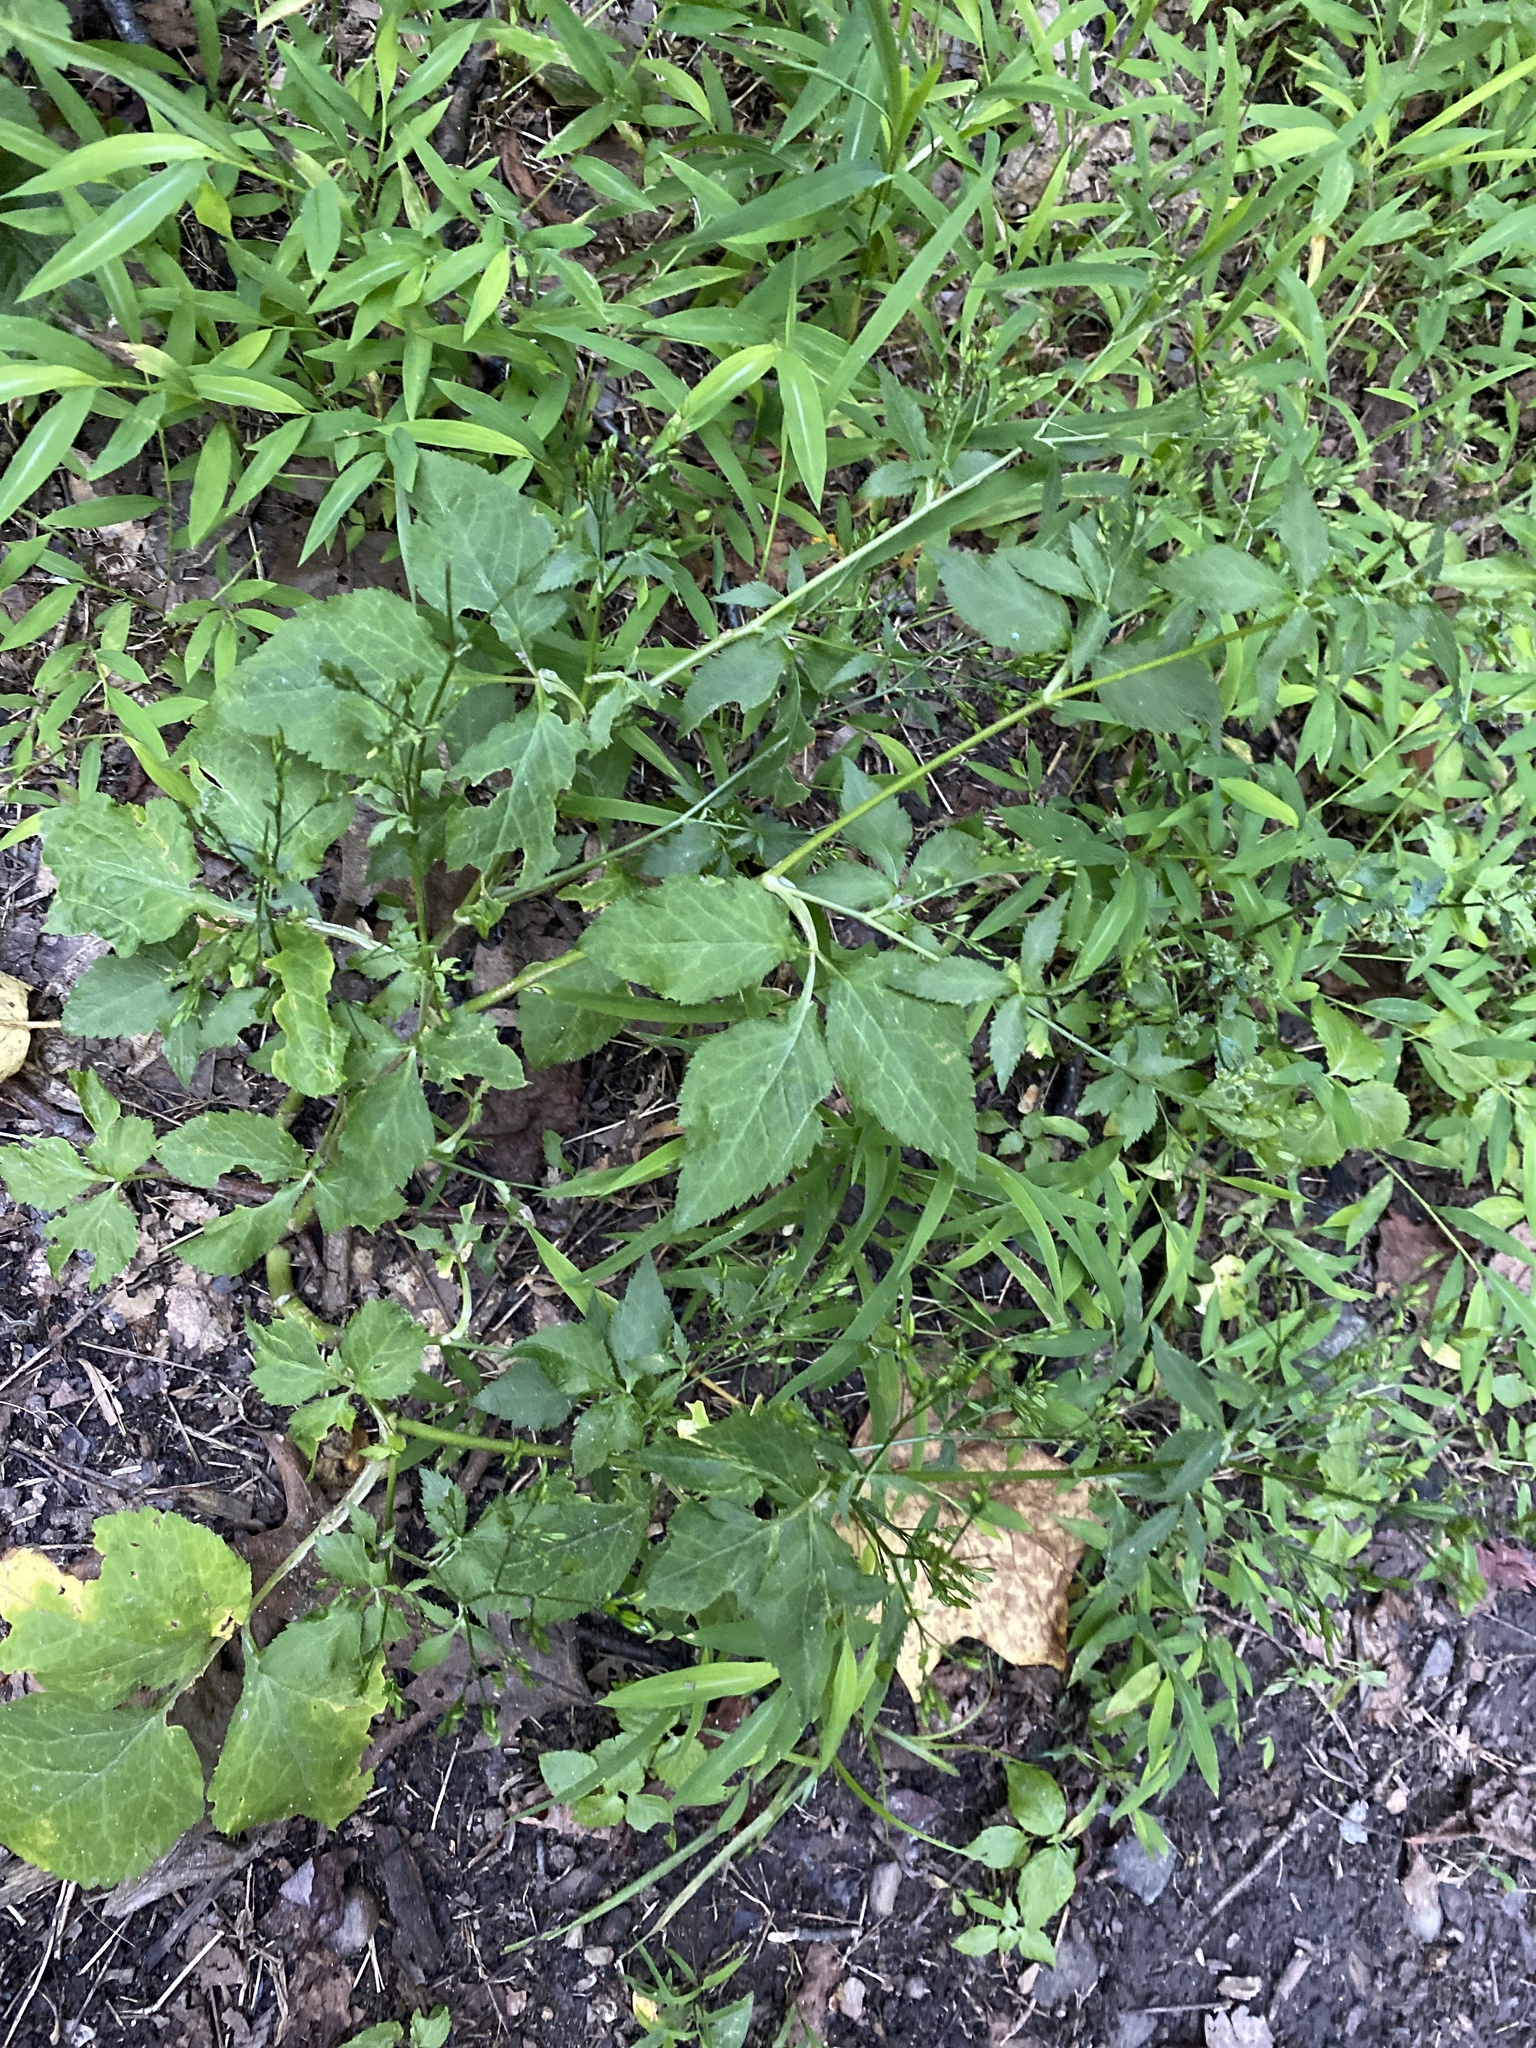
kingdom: Plantae
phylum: Tracheophyta
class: Magnoliopsida
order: Apiales
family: Apiaceae
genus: Cryptotaenia
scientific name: Cryptotaenia canadensis
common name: Honewort
